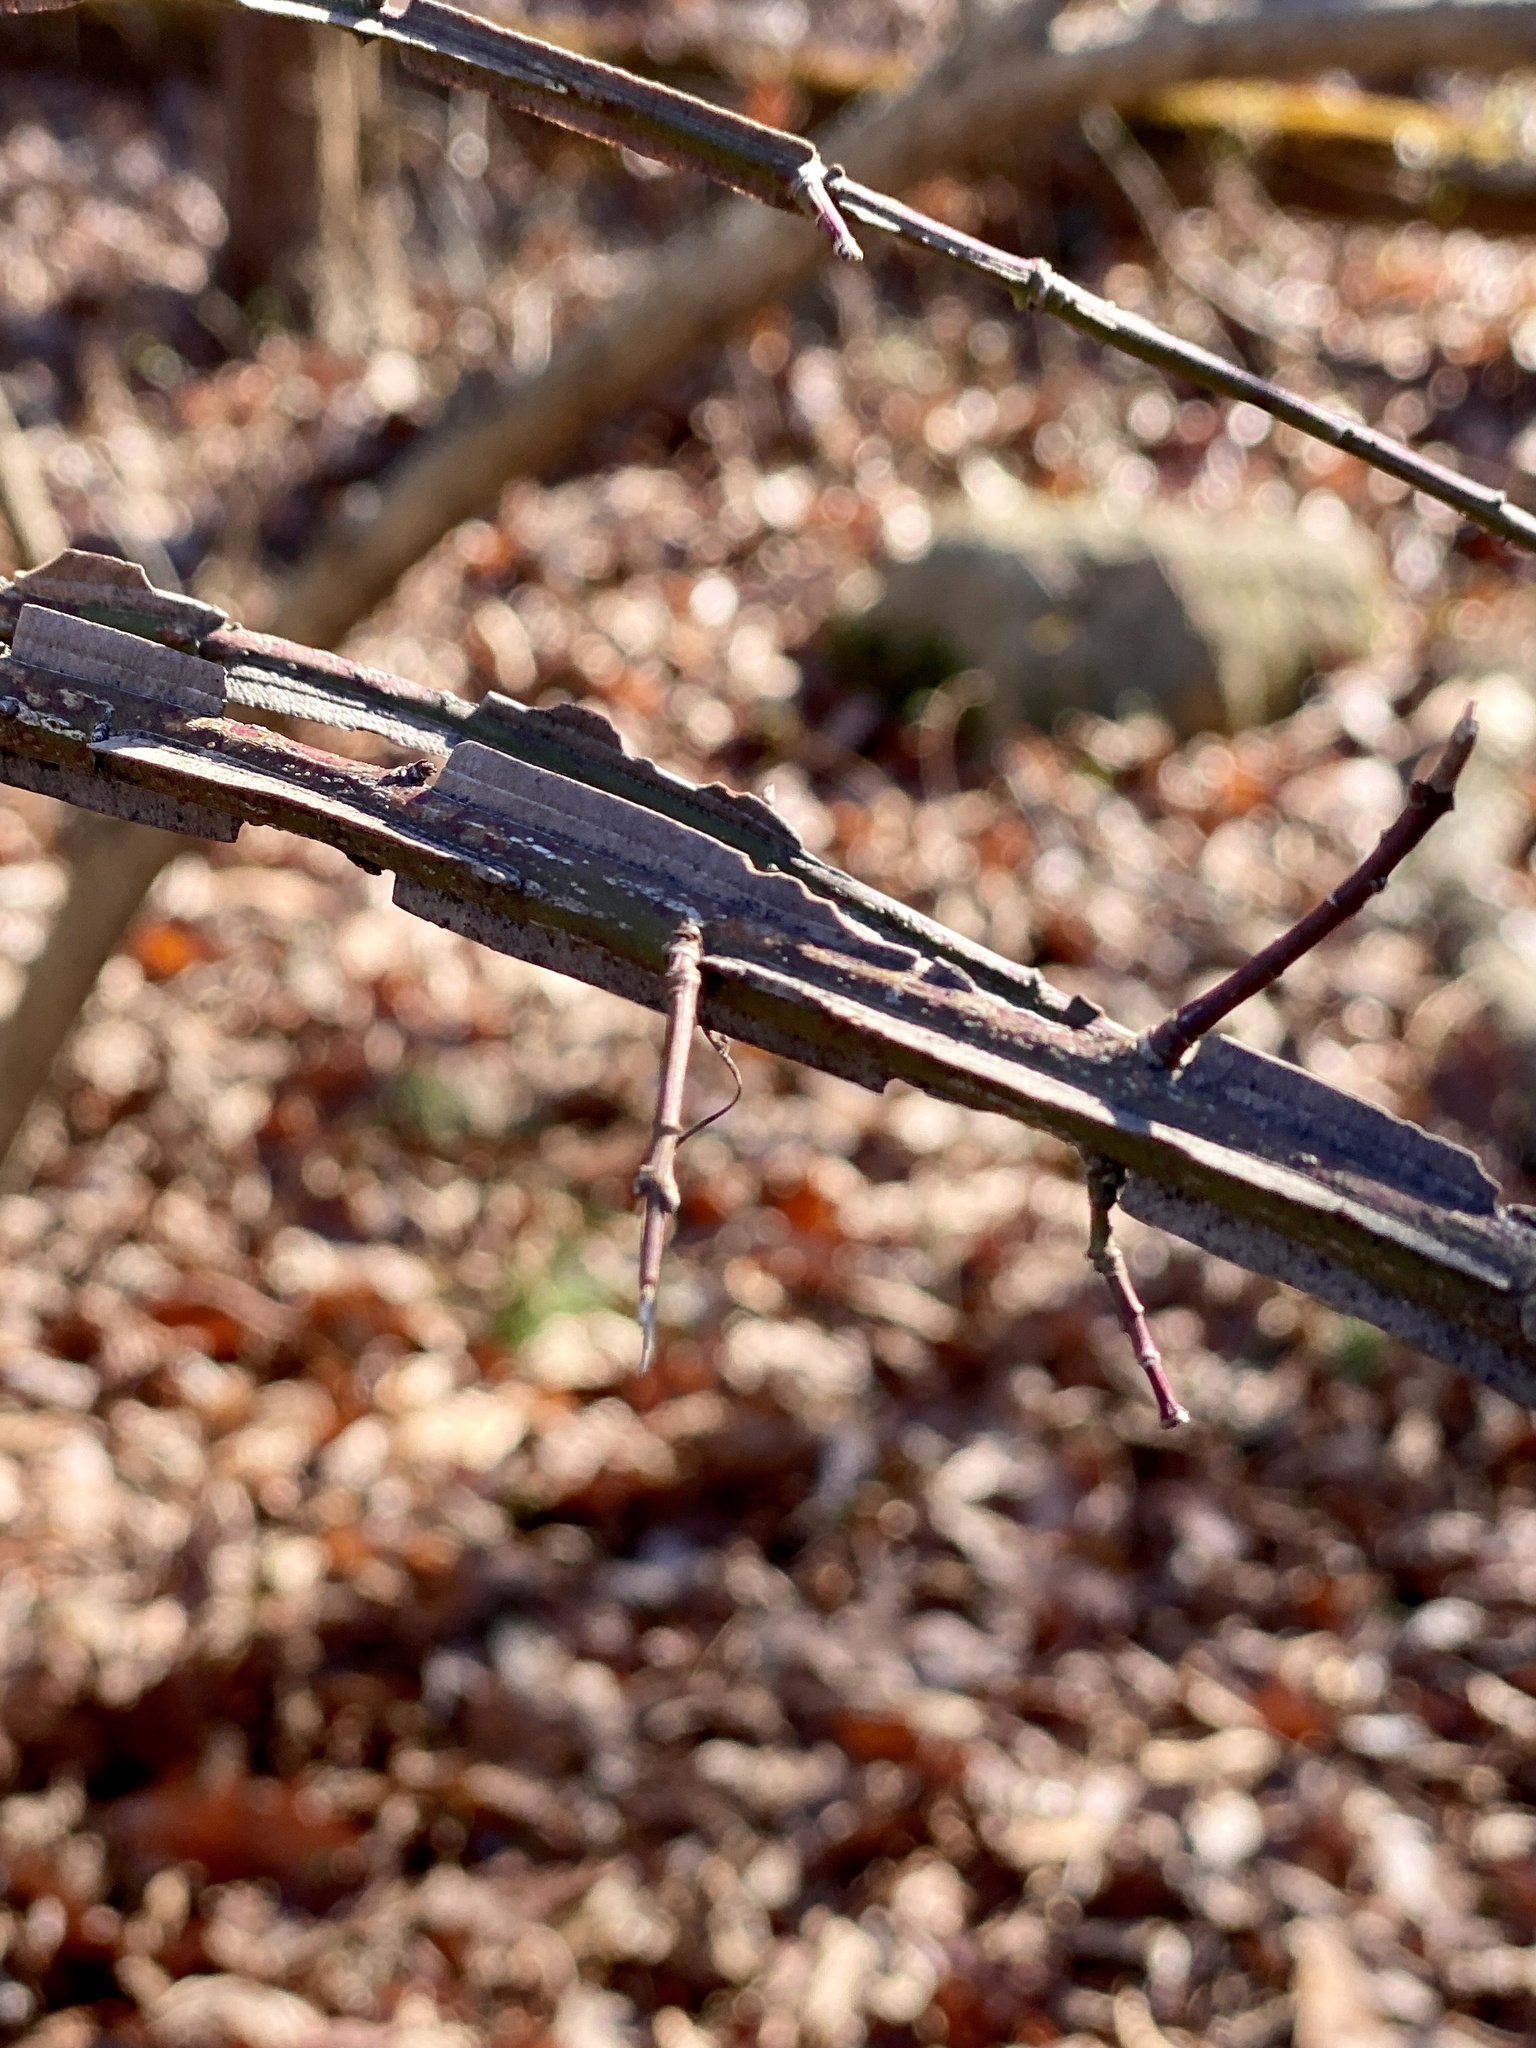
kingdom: Plantae
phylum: Tracheophyta
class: Magnoliopsida
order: Celastrales
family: Celastraceae
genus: Euonymus
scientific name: Euonymus alatus
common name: Winged euonymus
